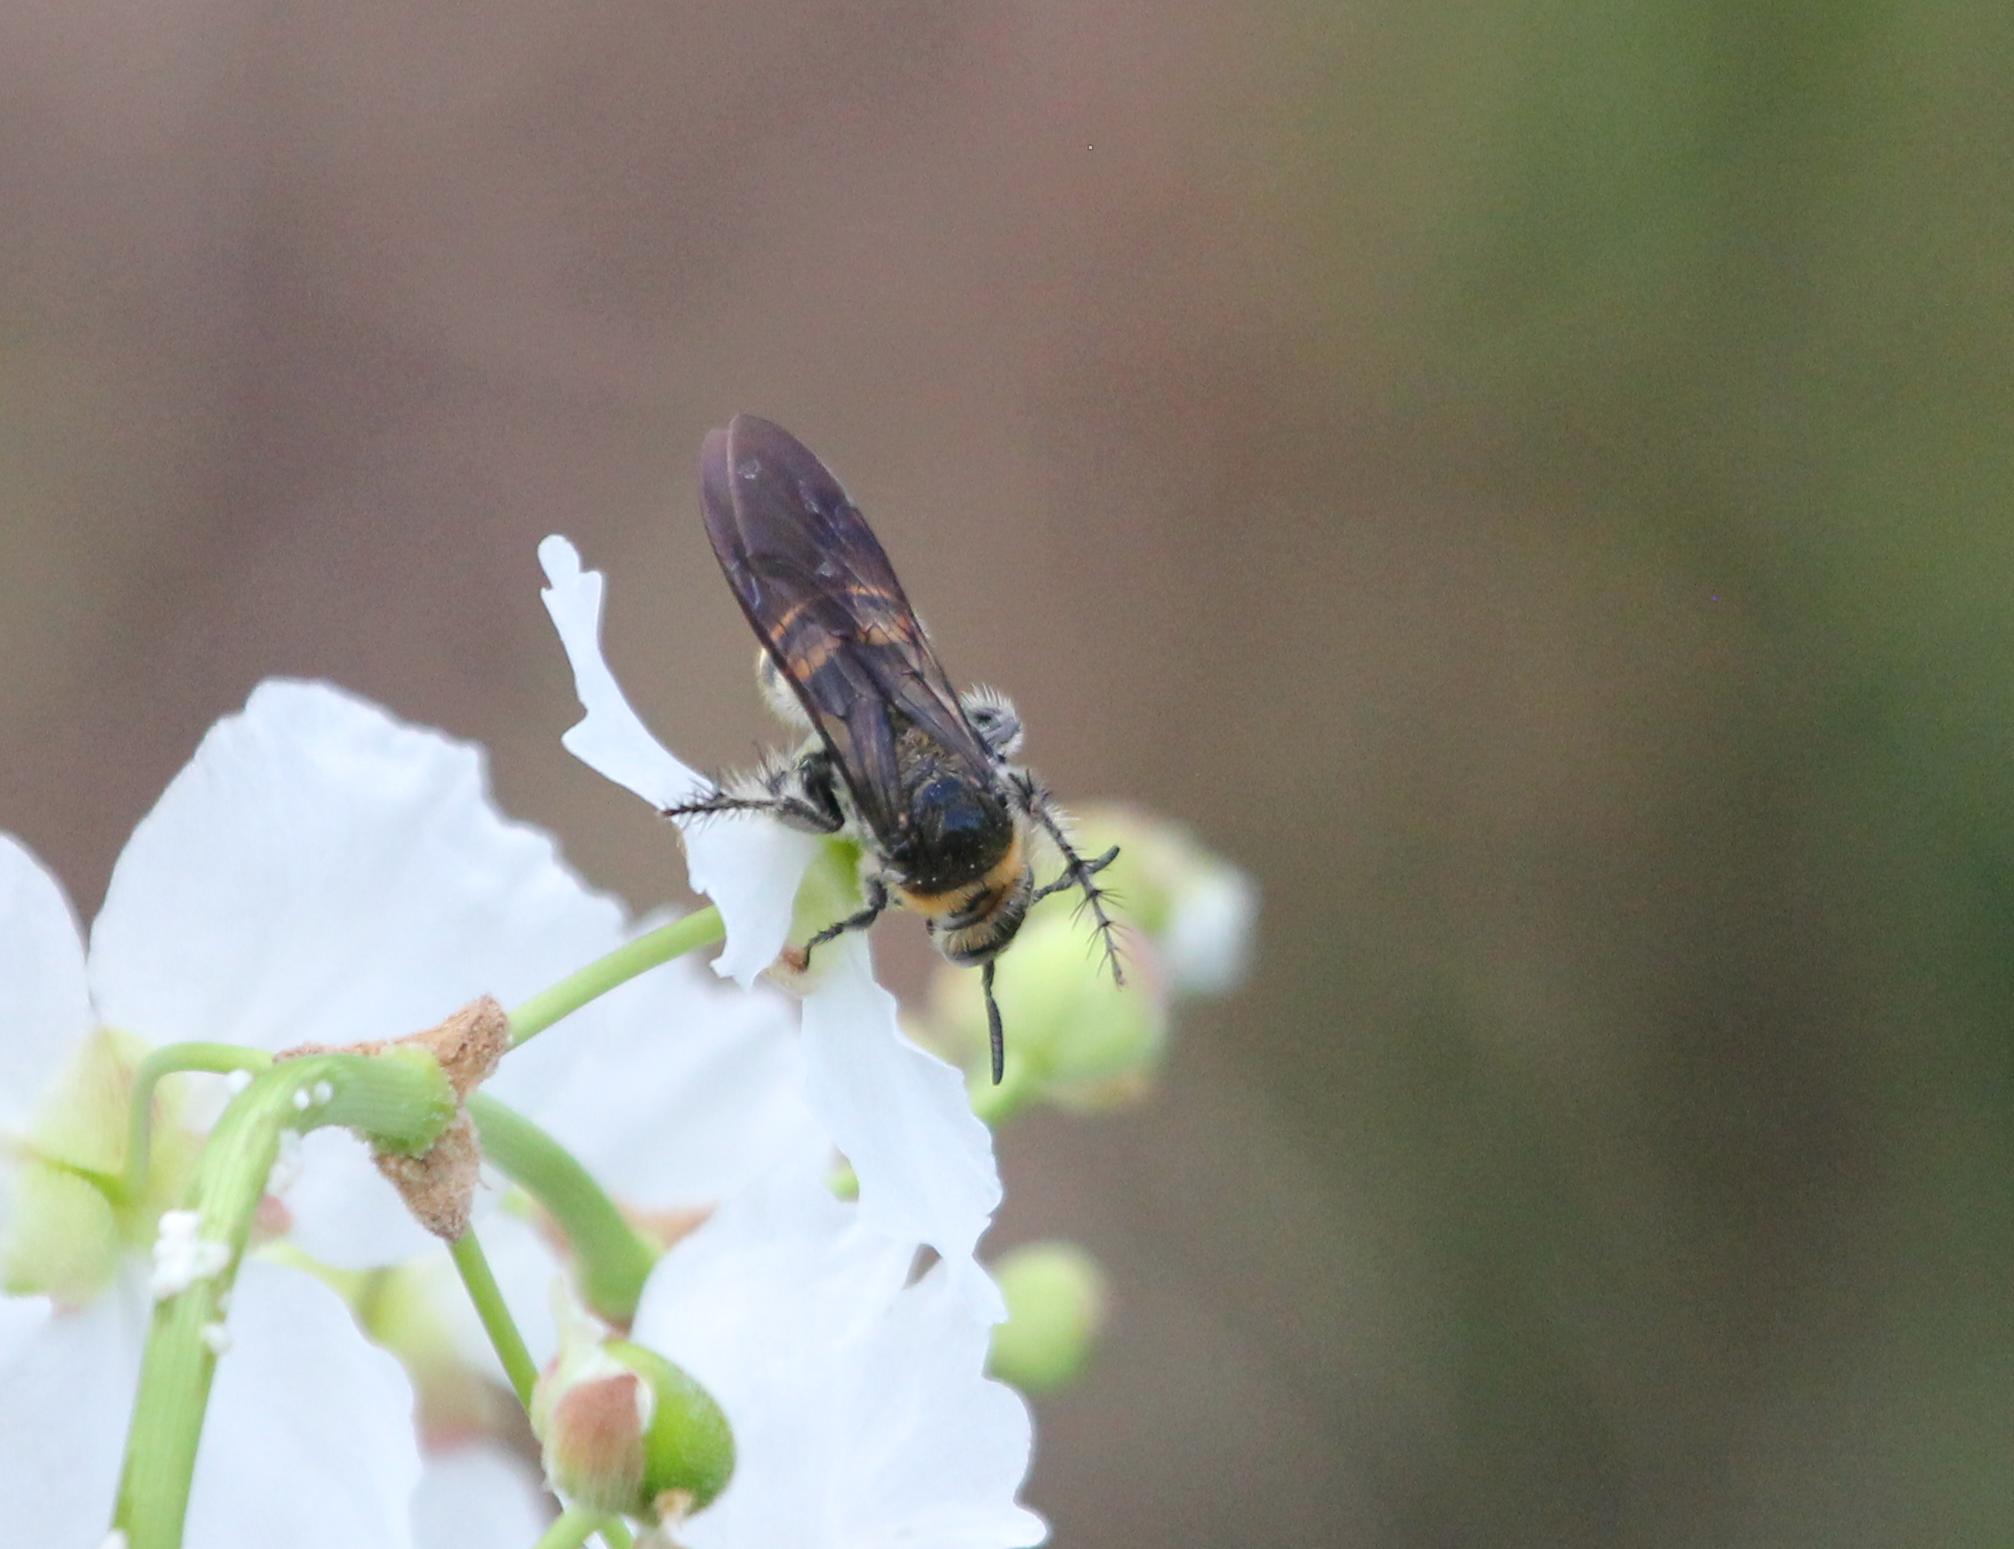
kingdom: Animalia
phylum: Arthropoda
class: Insecta
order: Hymenoptera
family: Scoliidae
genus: Dielis
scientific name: Dielis
